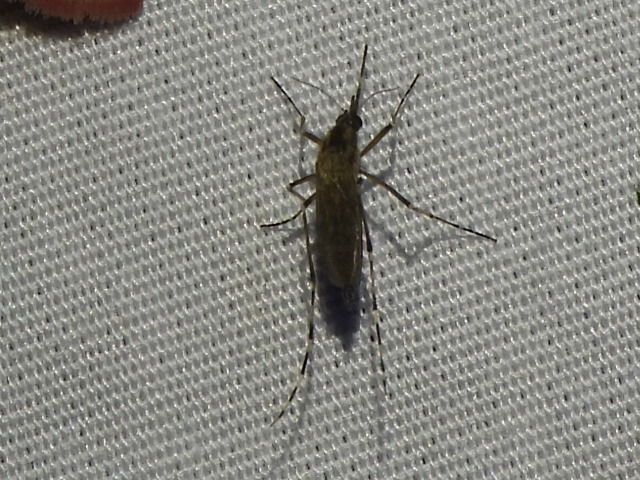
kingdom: Animalia
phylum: Arthropoda
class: Insecta
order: Diptera
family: Culicidae
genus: Aedes
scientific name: Aedes sollicitans
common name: Saltmarsh mosquito
